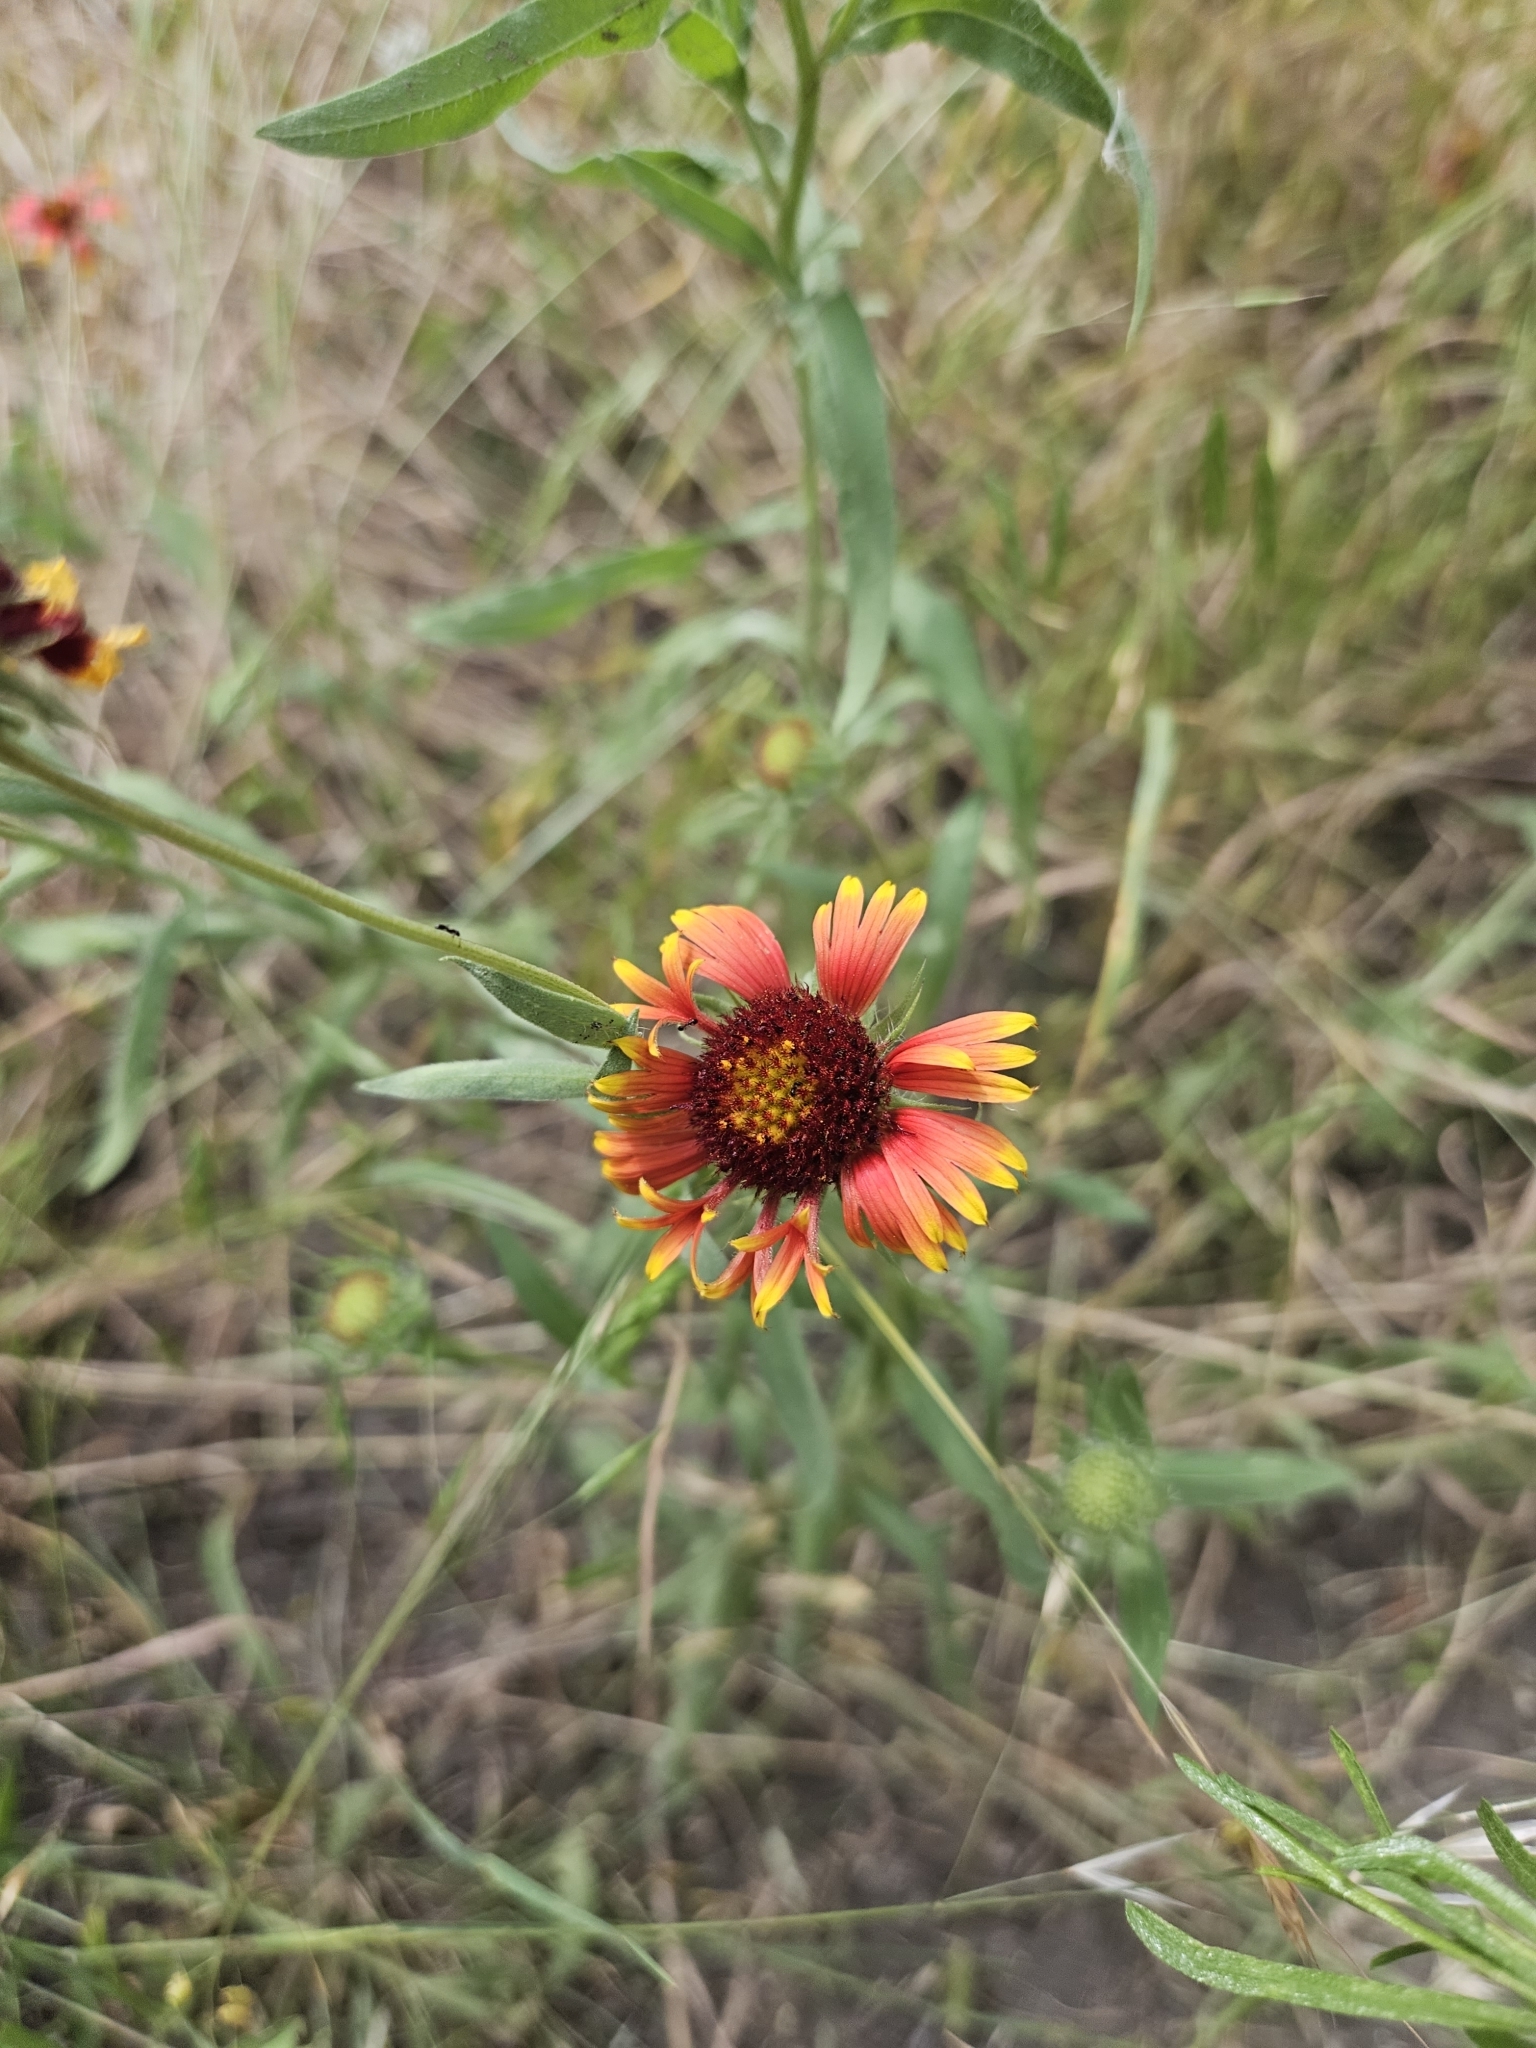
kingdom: Plantae
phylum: Tracheophyta
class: Magnoliopsida
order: Asterales
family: Asteraceae
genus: Gaillardia
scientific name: Gaillardia pulchella
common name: Firewheel
